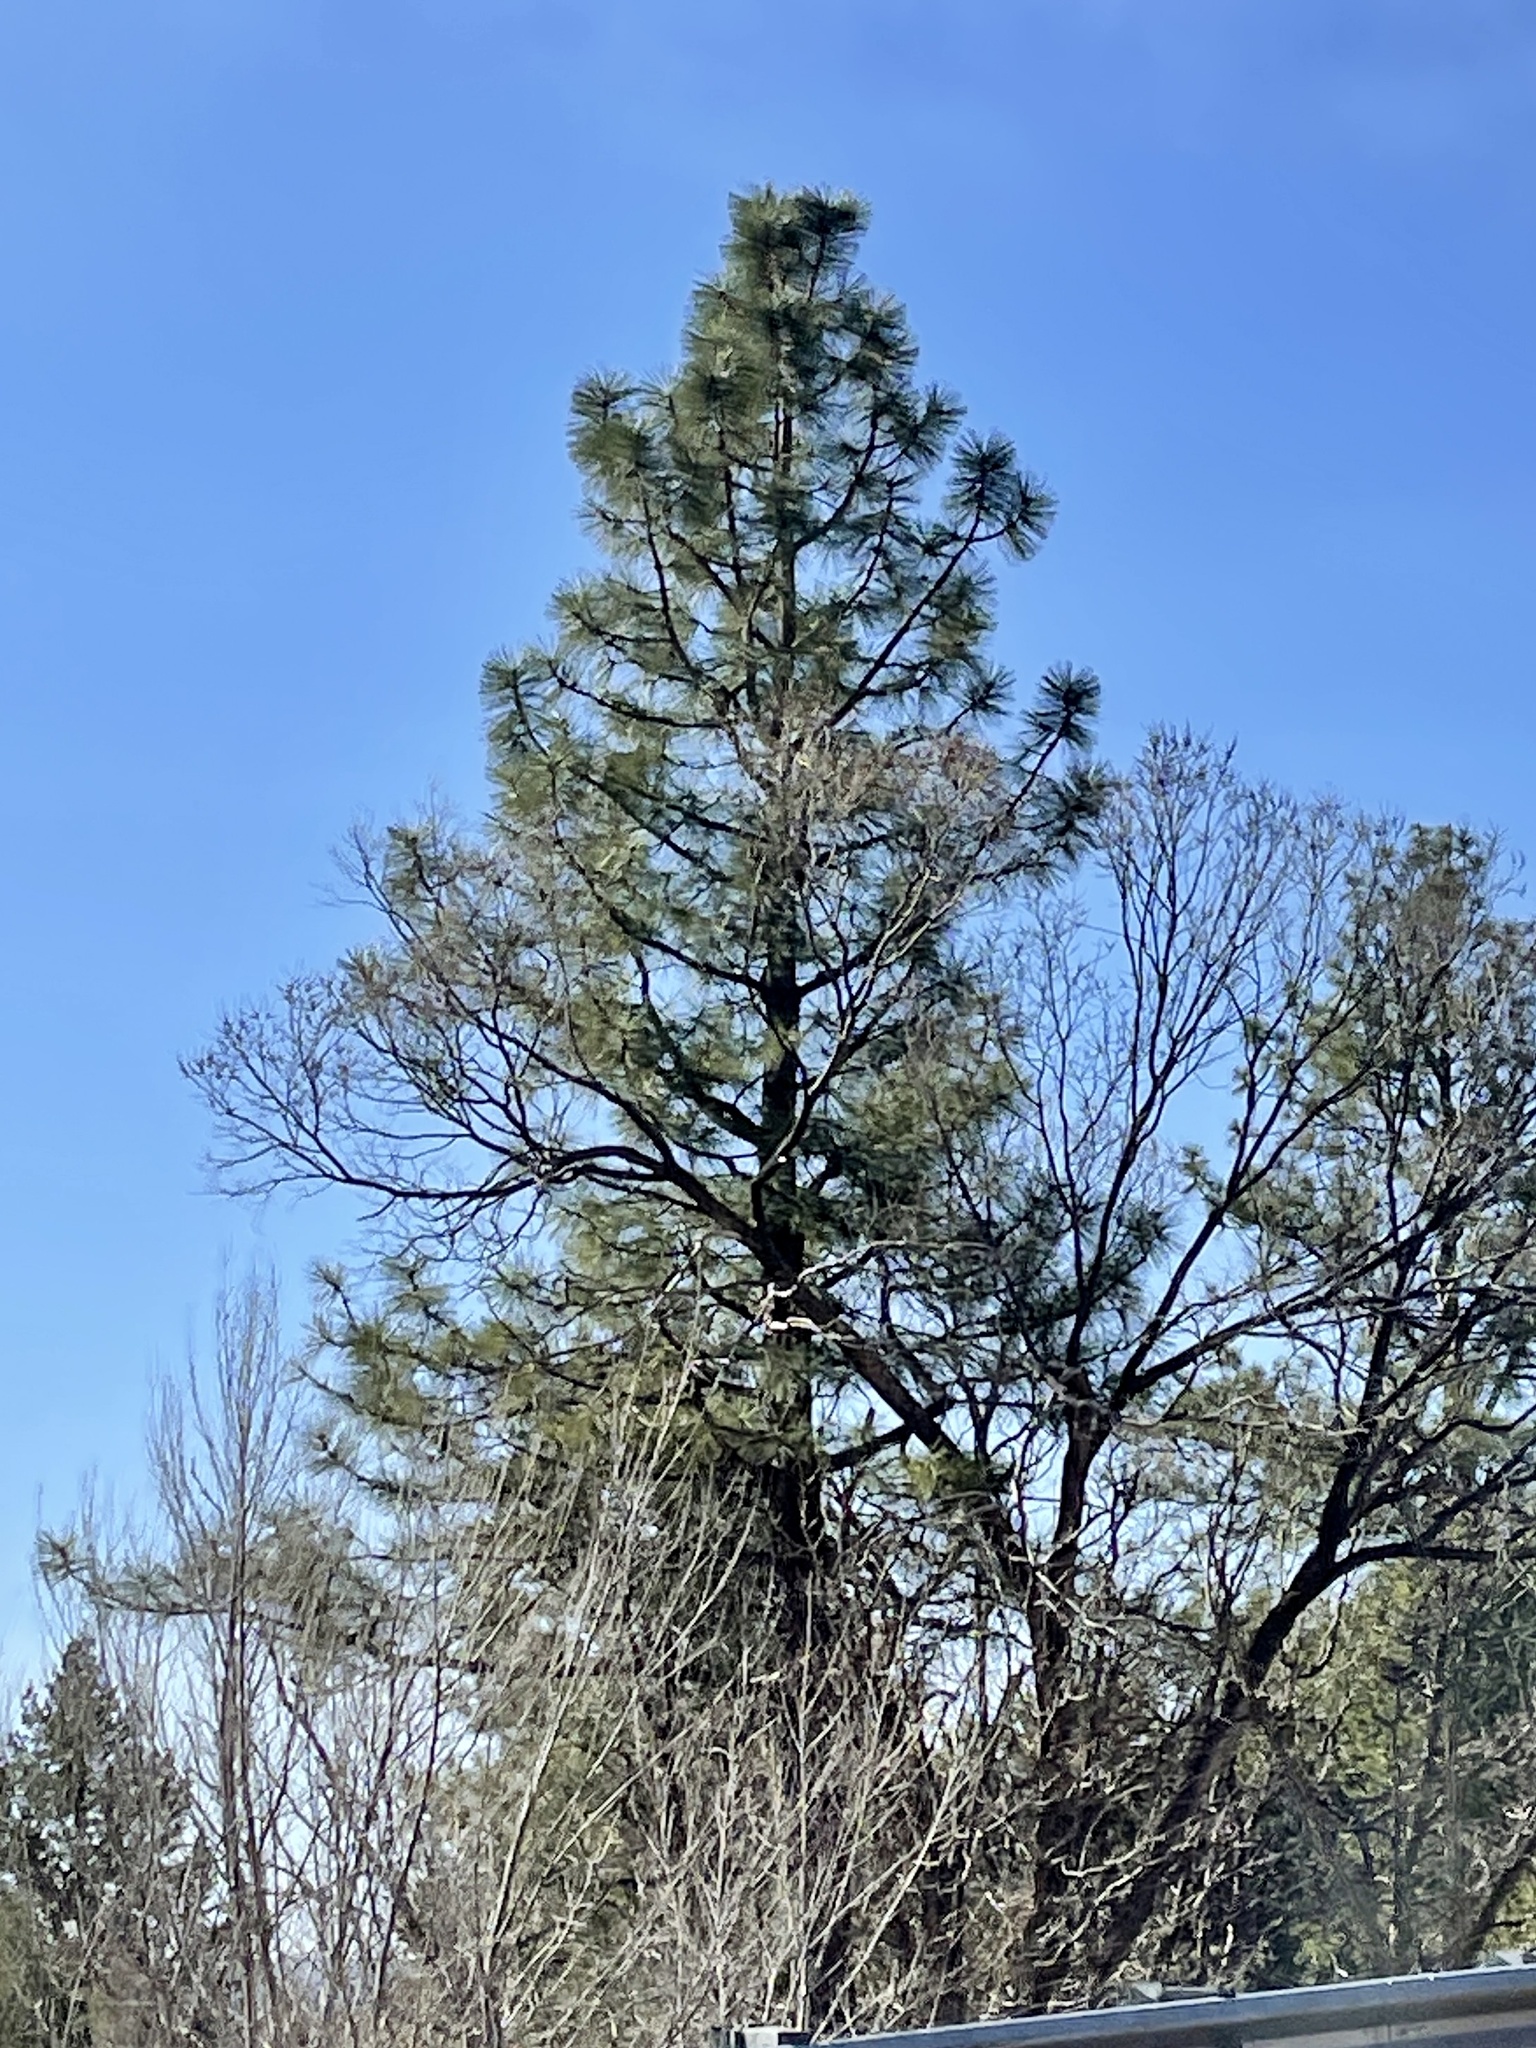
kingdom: Plantae
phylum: Tracheophyta
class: Pinopsida
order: Pinales
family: Pinaceae
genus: Pinus
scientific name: Pinus ponderosa
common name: Western yellow-pine
